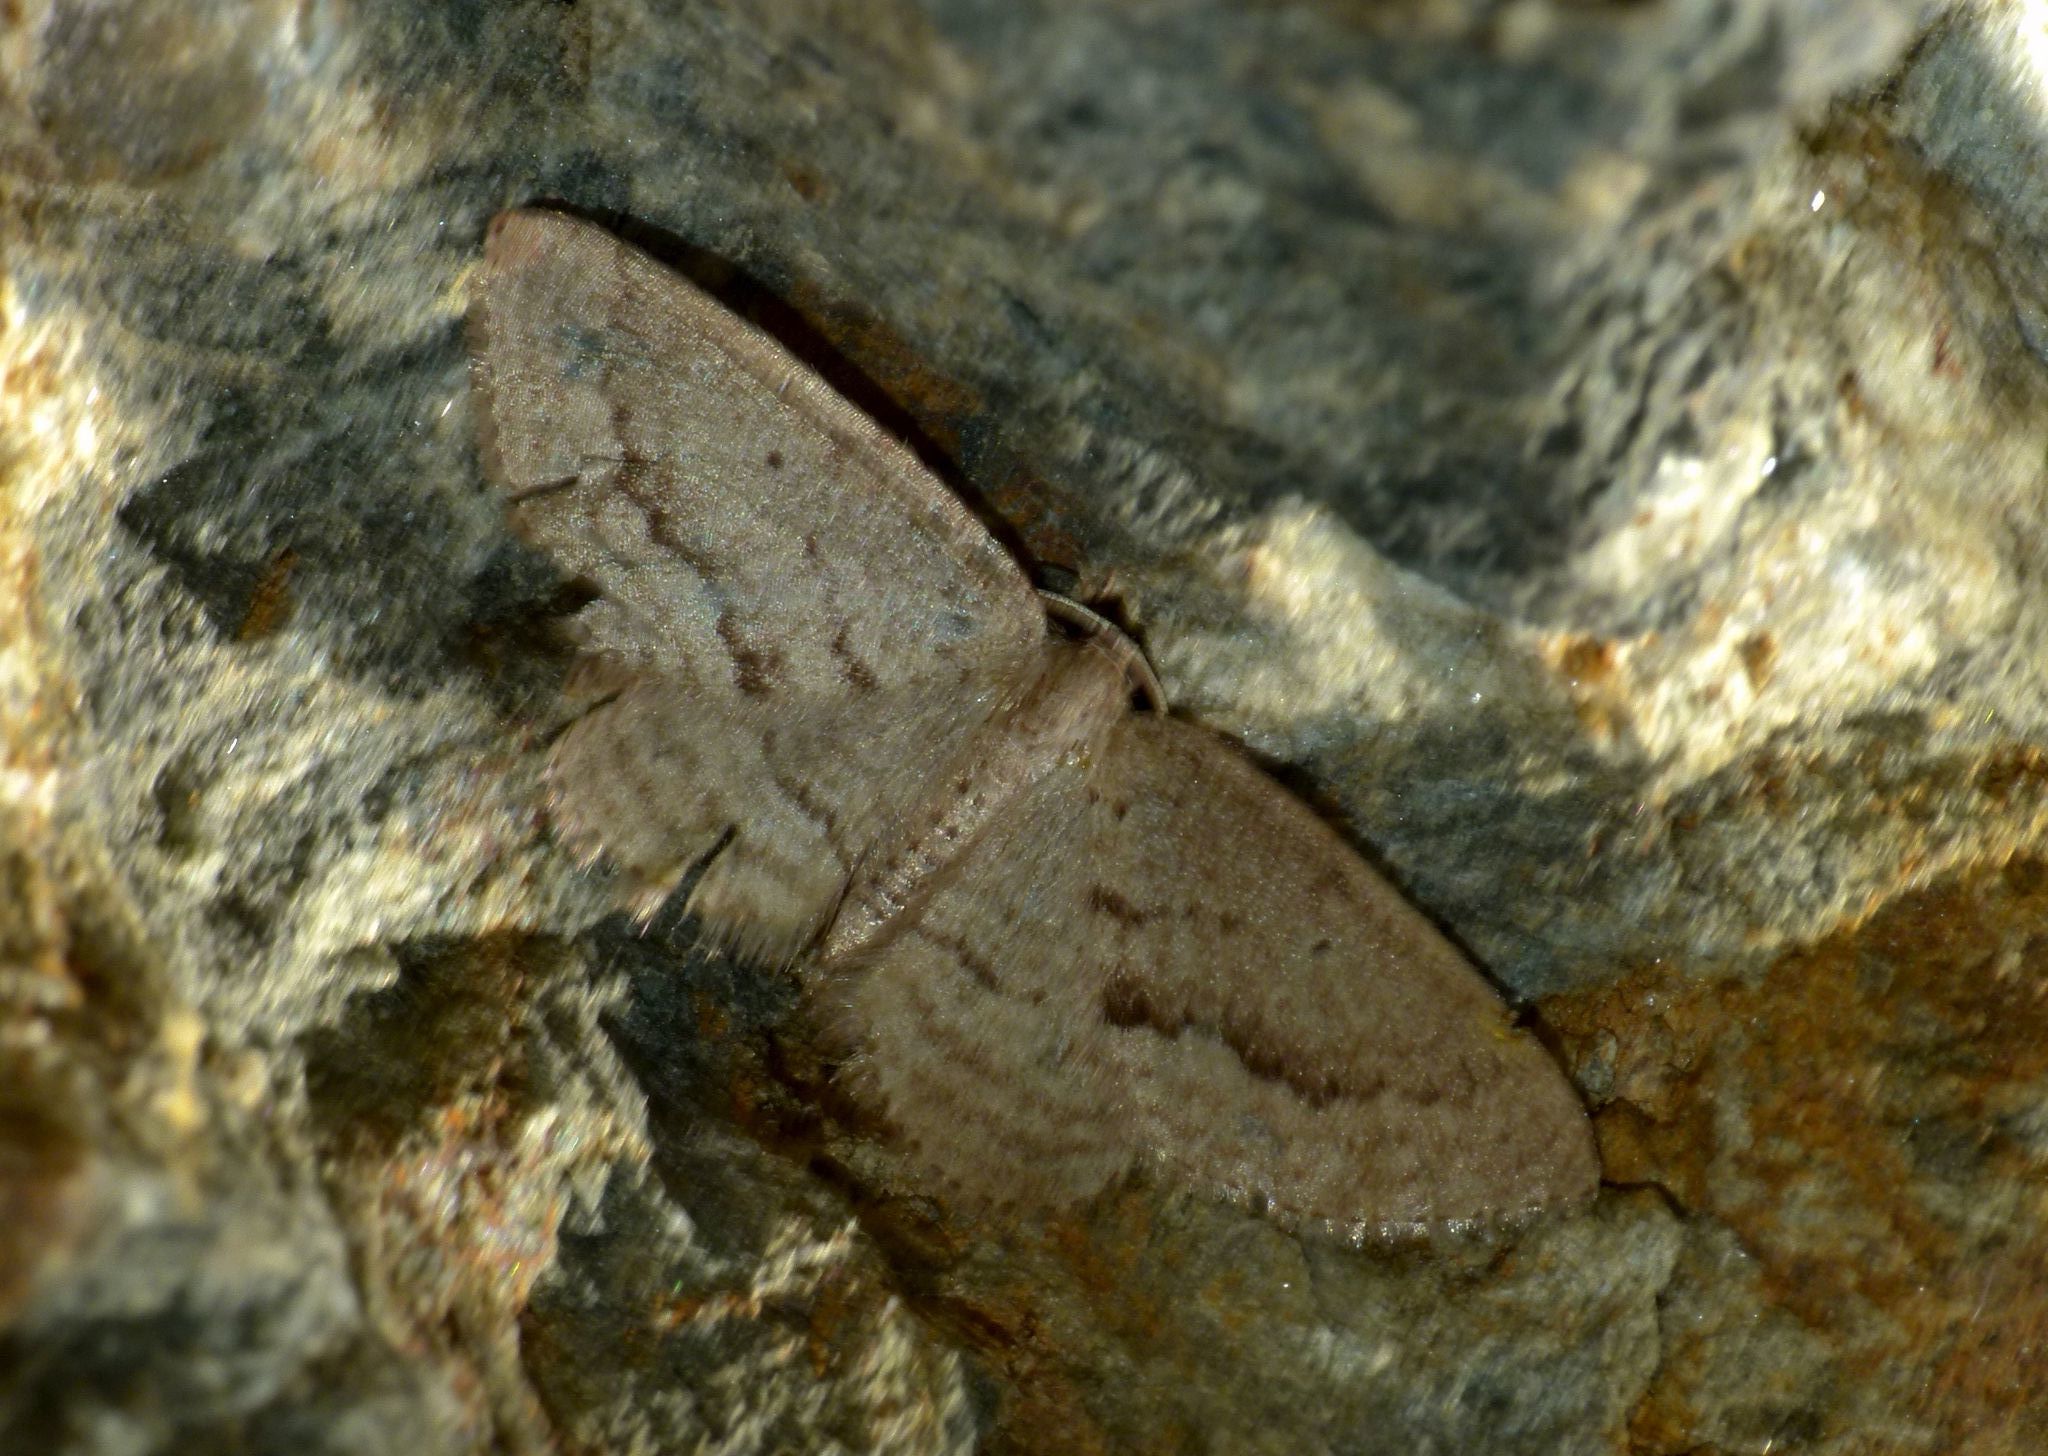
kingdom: Animalia
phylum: Arthropoda
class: Insecta
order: Lepidoptera
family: Geometridae
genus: Poecilasthena
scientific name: Poecilasthena schistaria
